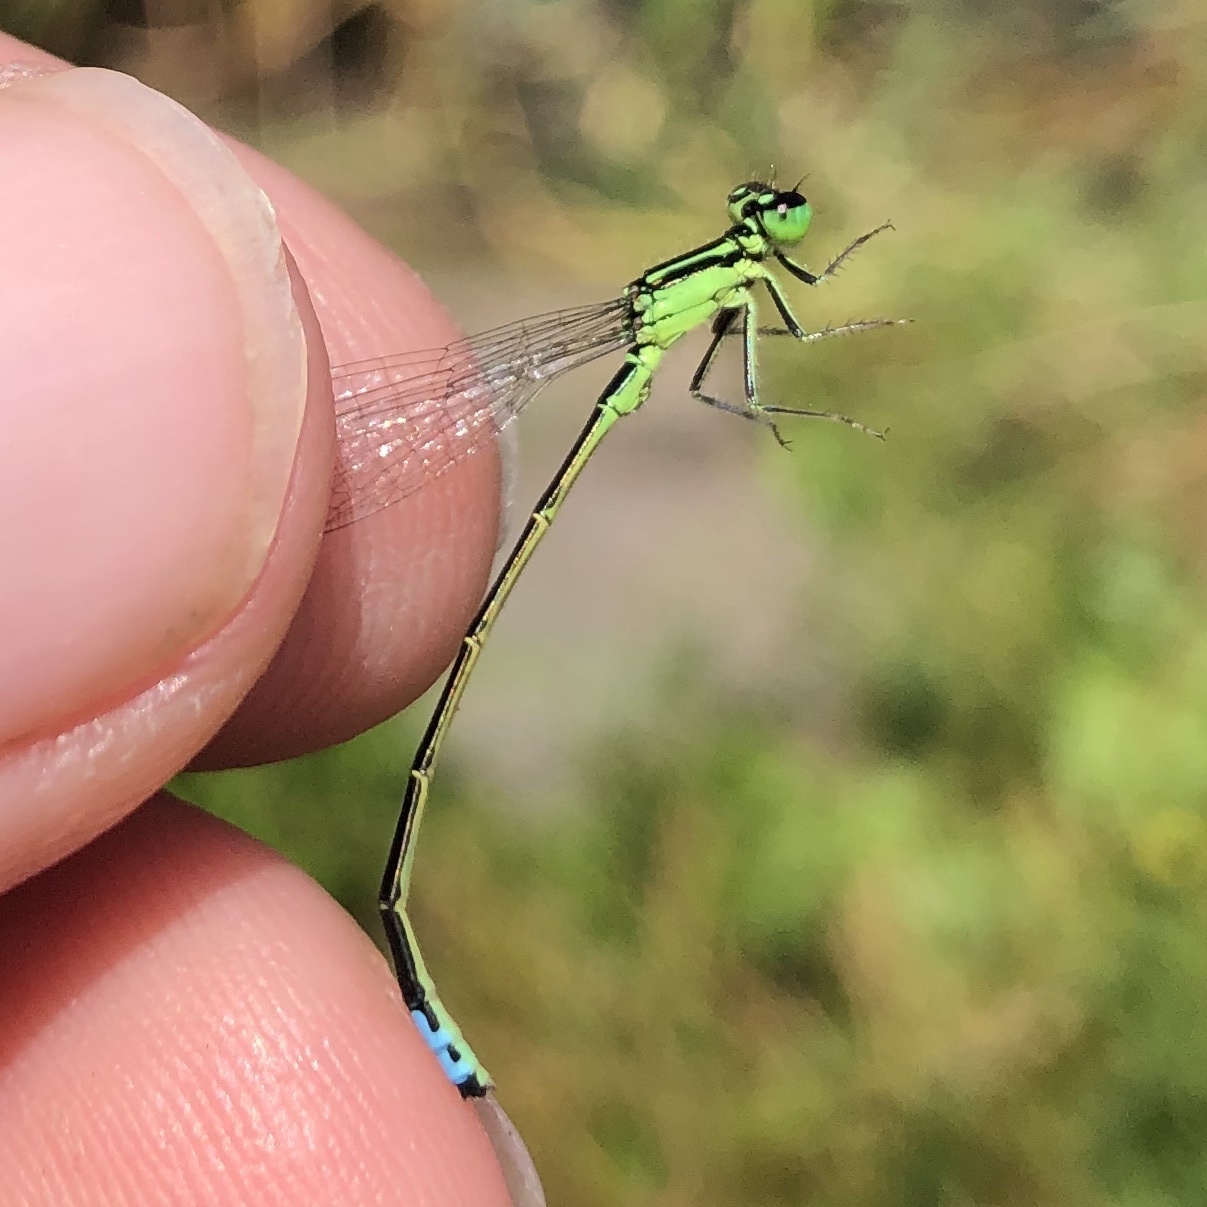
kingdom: Animalia
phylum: Arthropoda
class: Insecta
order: Odonata
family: Coenagrionidae
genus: Ischnura
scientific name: Ischnura verticalis
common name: Eastern forktail
